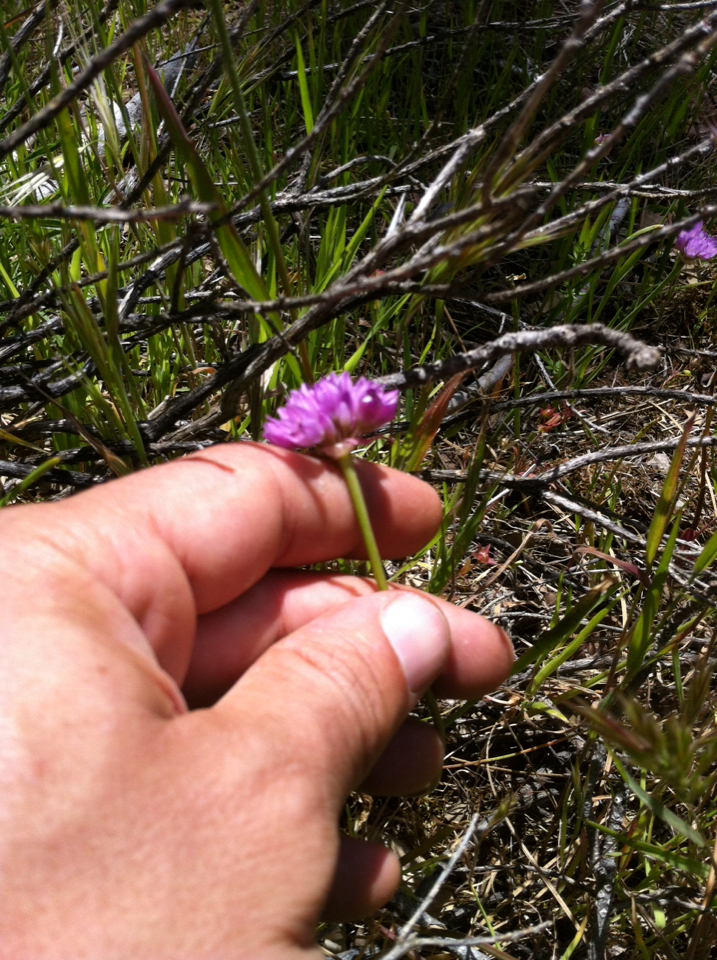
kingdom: Plantae
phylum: Tracheophyta
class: Liliopsida
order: Asparagales
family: Amaryllidaceae
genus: Allium
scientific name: Allium serra
